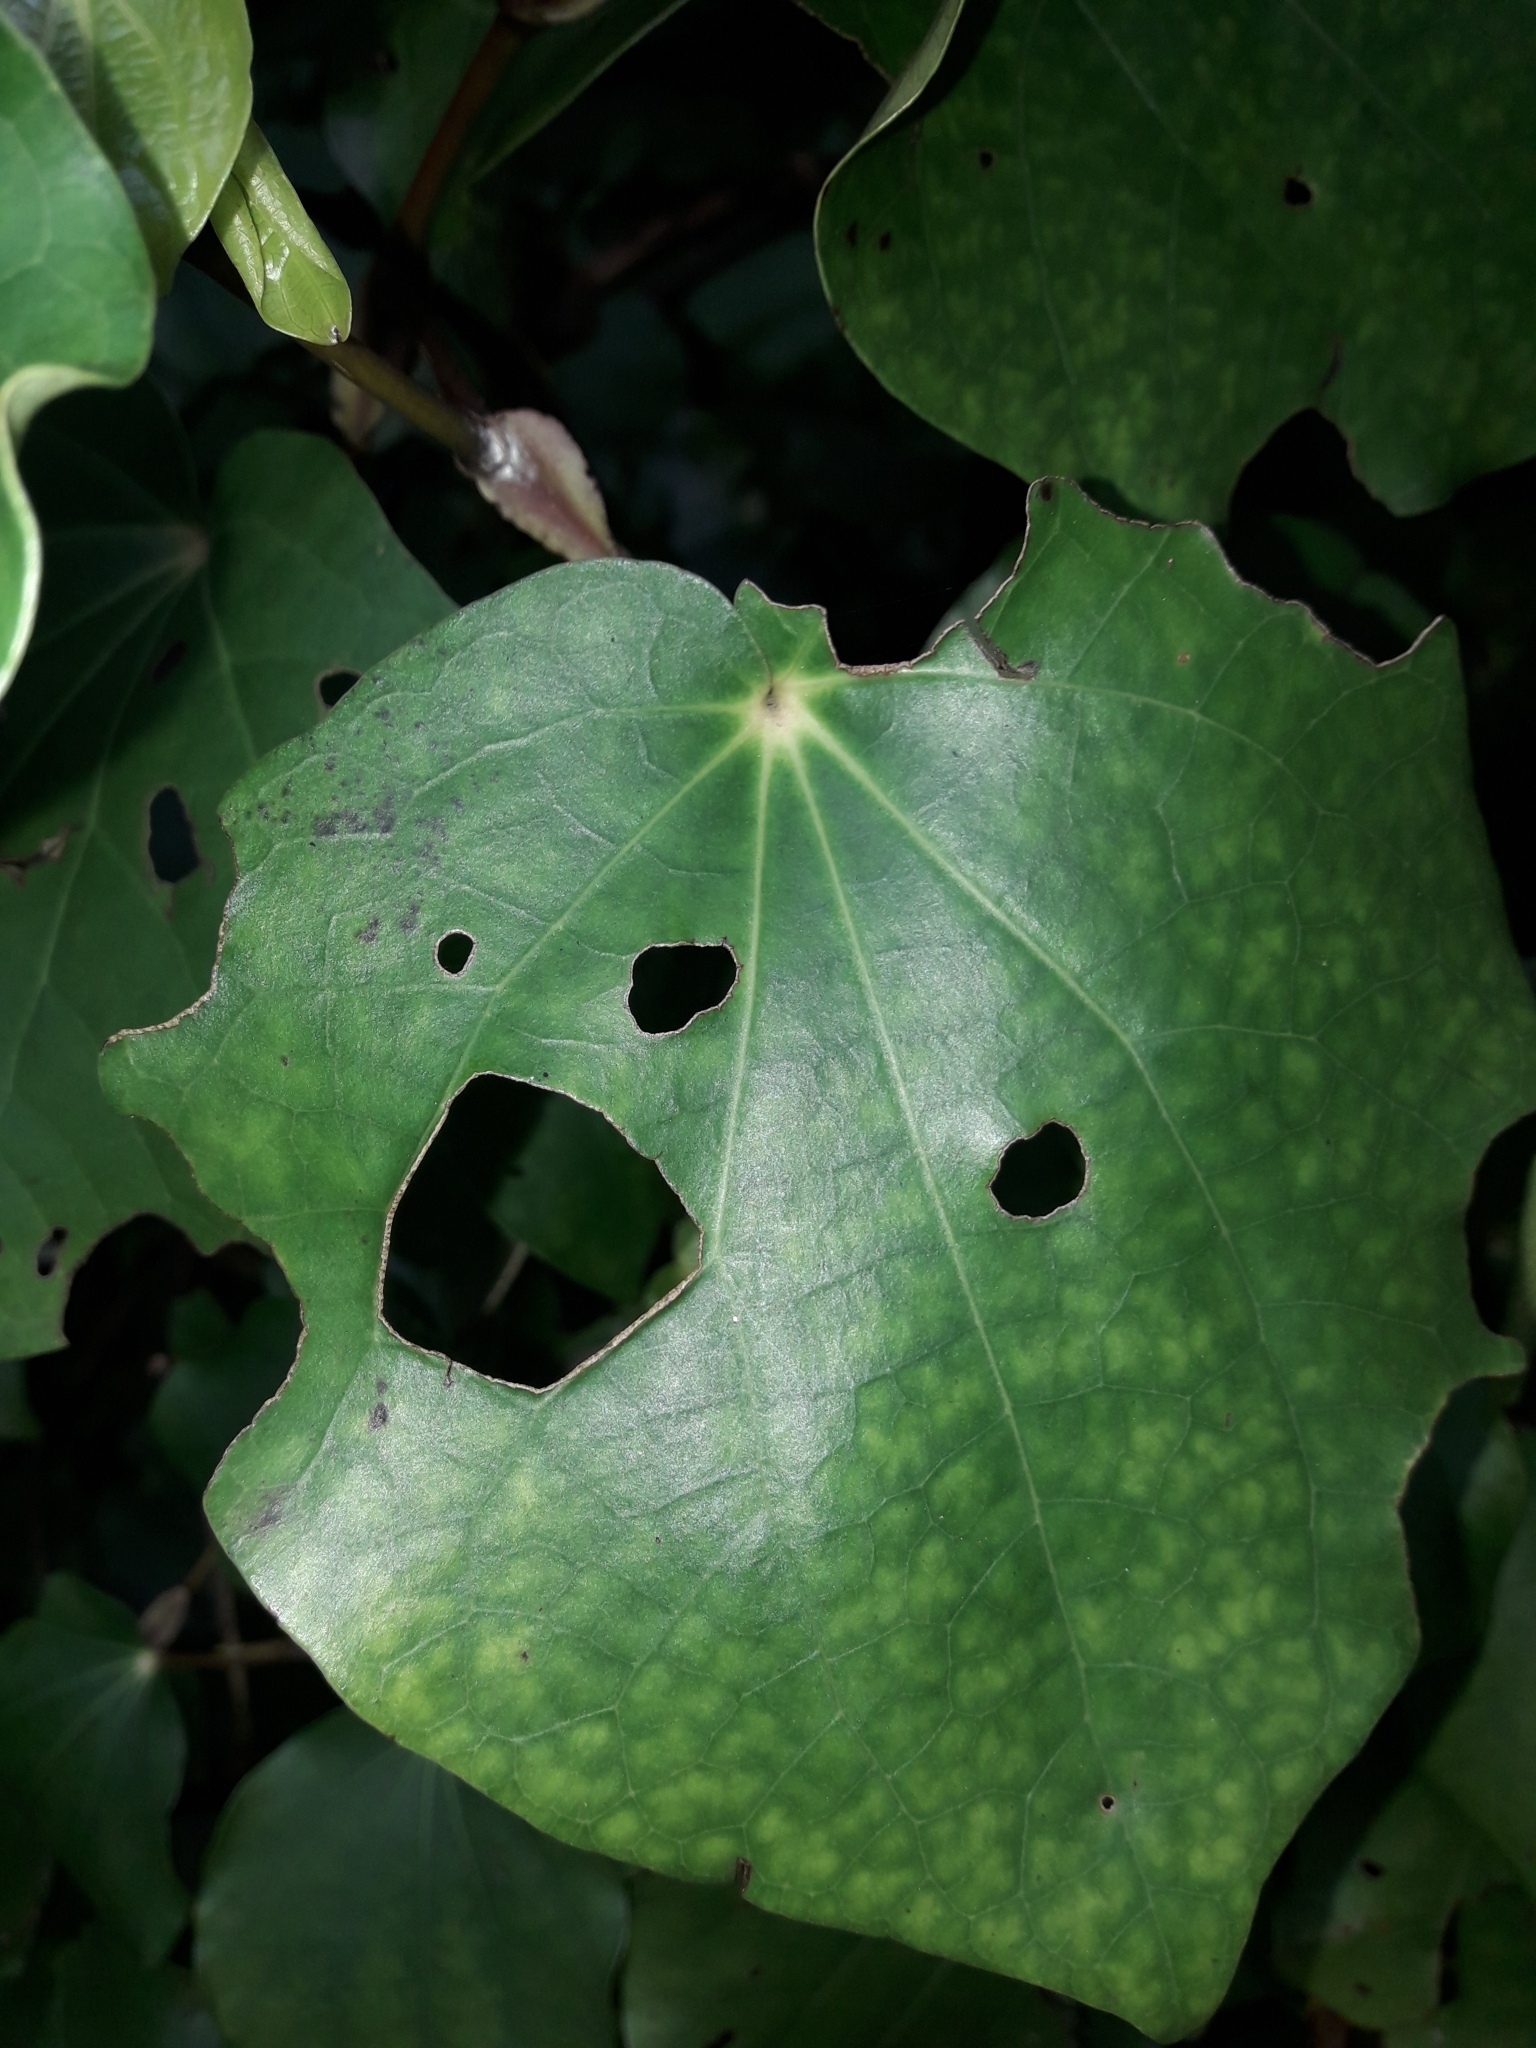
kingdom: Animalia
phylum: Arthropoda
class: Insecta
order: Lepidoptera
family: Geometridae
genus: Cleora
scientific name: Cleora scriptaria
